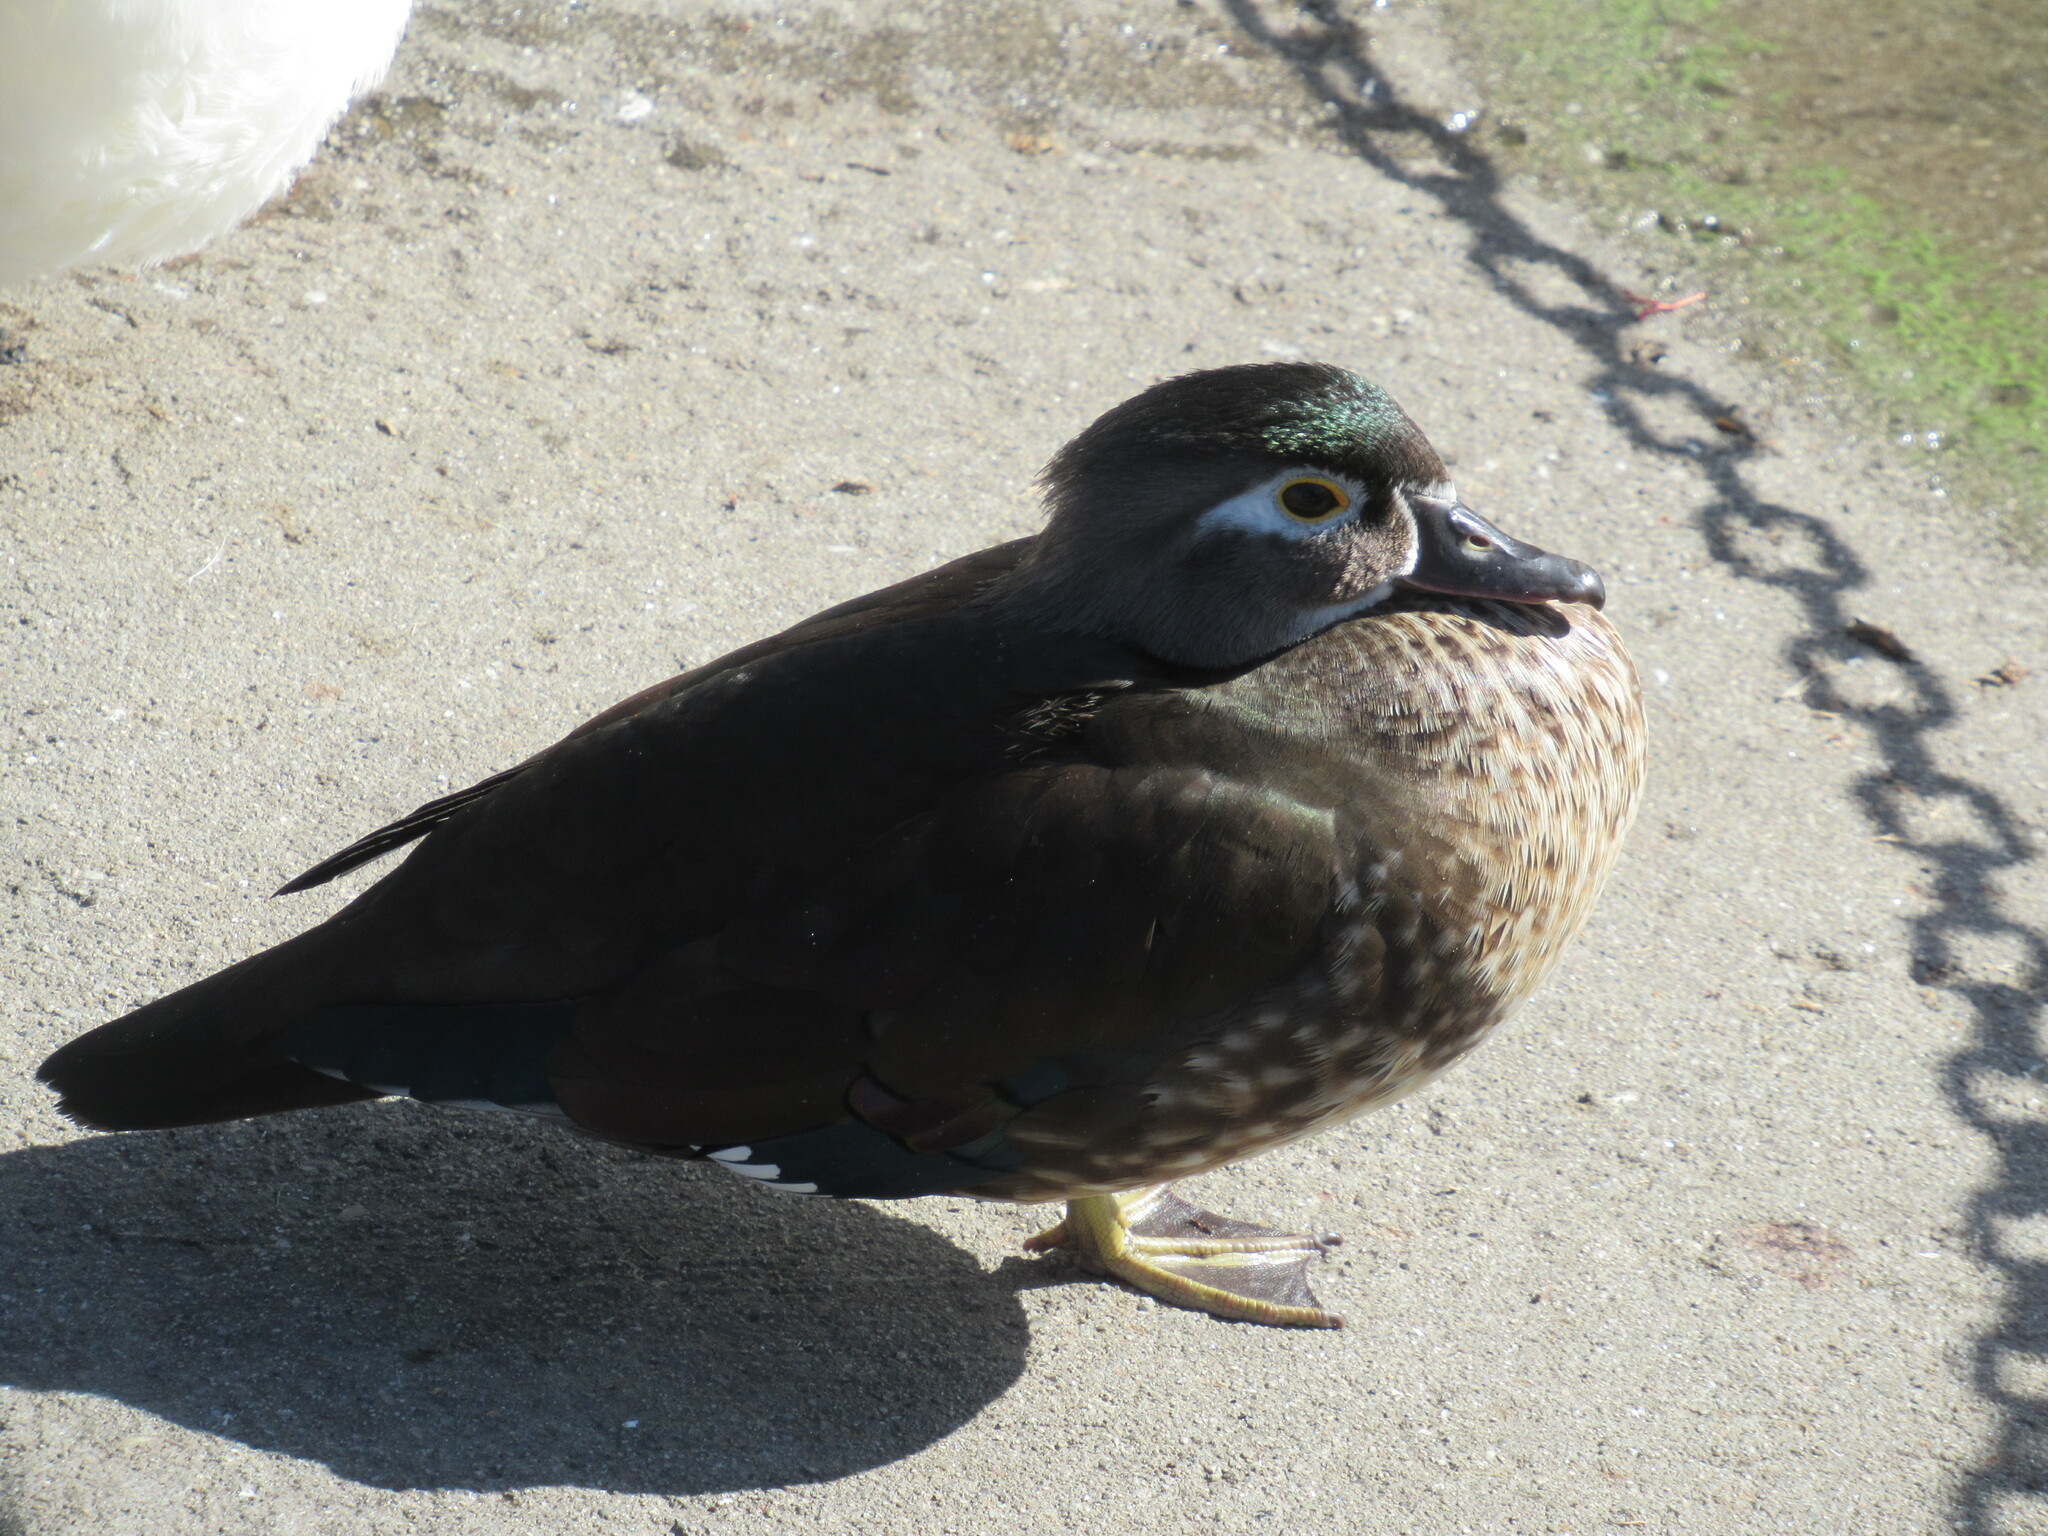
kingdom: Animalia
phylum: Chordata
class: Aves
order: Anseriformes
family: Anatidae
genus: Aix
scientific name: Aix sponsa
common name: Wood duck
